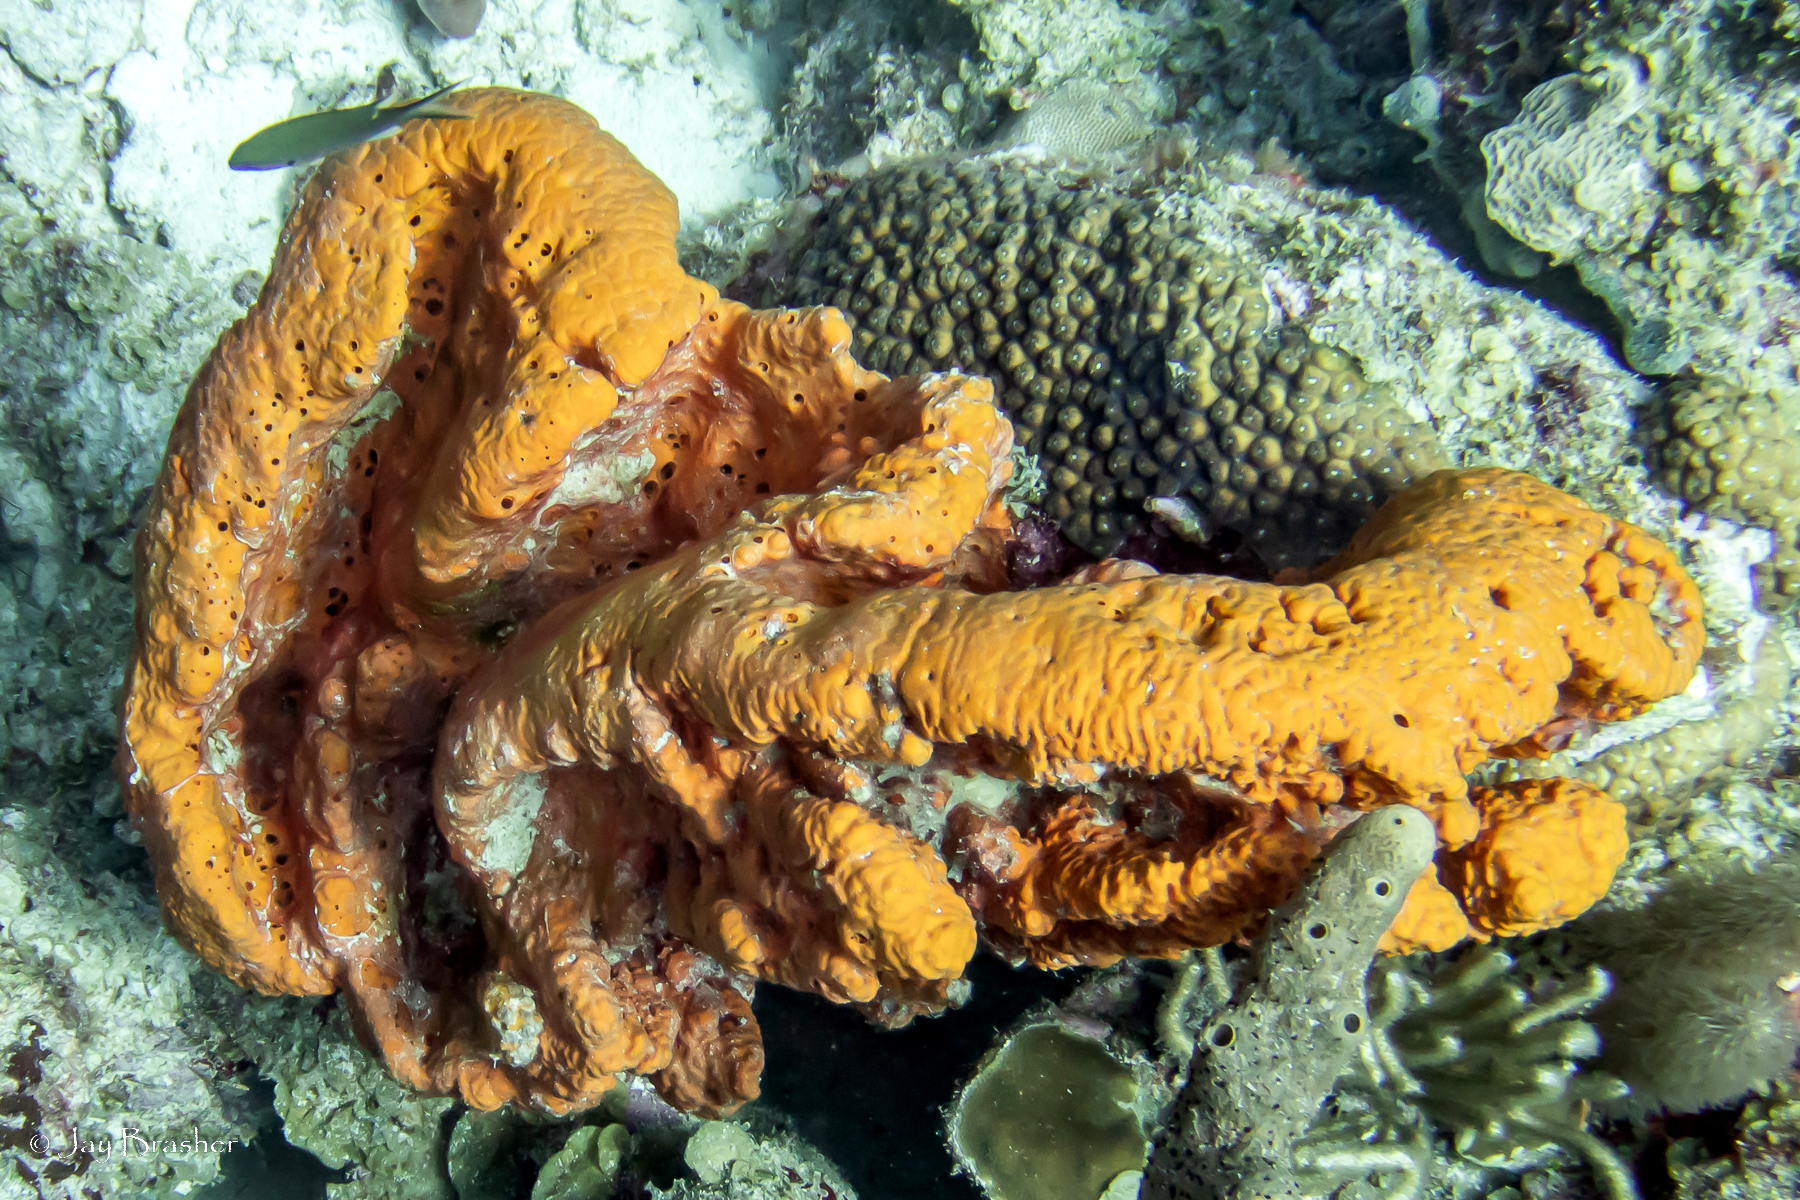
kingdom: Animalia
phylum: Porifera
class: Demospongiae
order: Agelasida
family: Agelasidae
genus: Agelas
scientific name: Agelas clathrodes
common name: Orange elephant ear sponge
